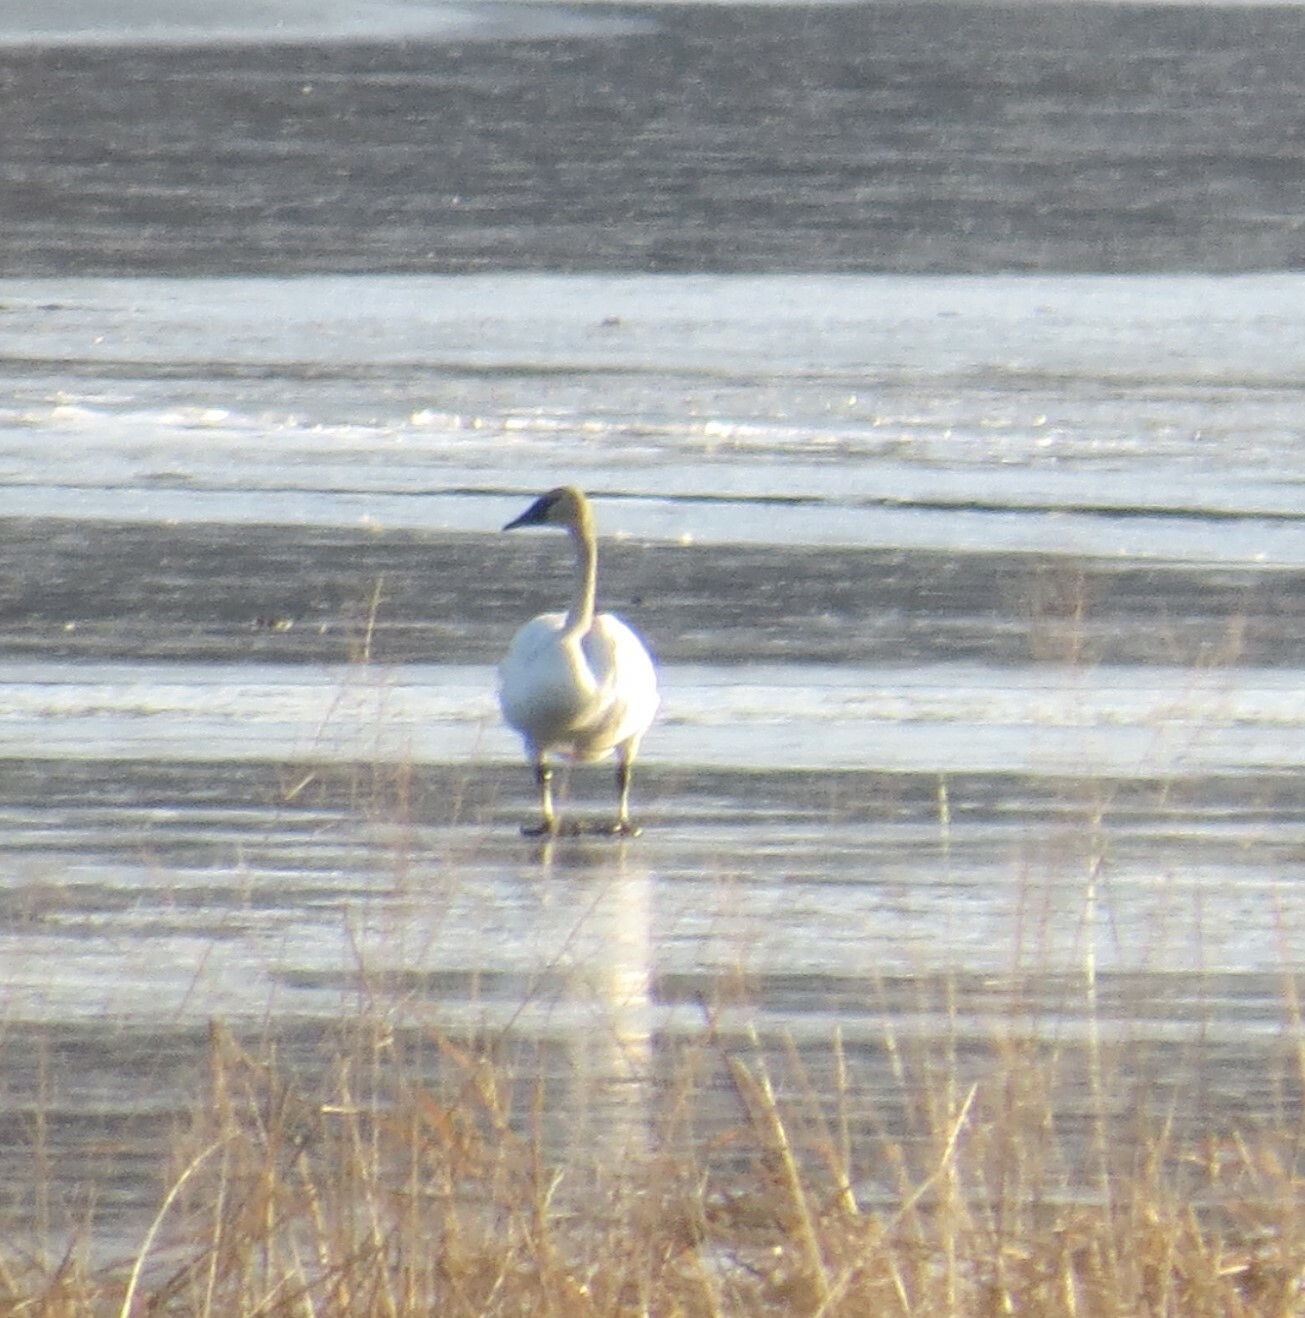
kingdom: Animalia
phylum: Chordata
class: Aves
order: Anseriformes
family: Anatidae
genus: Cygnus
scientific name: Cygnus buccinator
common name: Trumpeter swan
